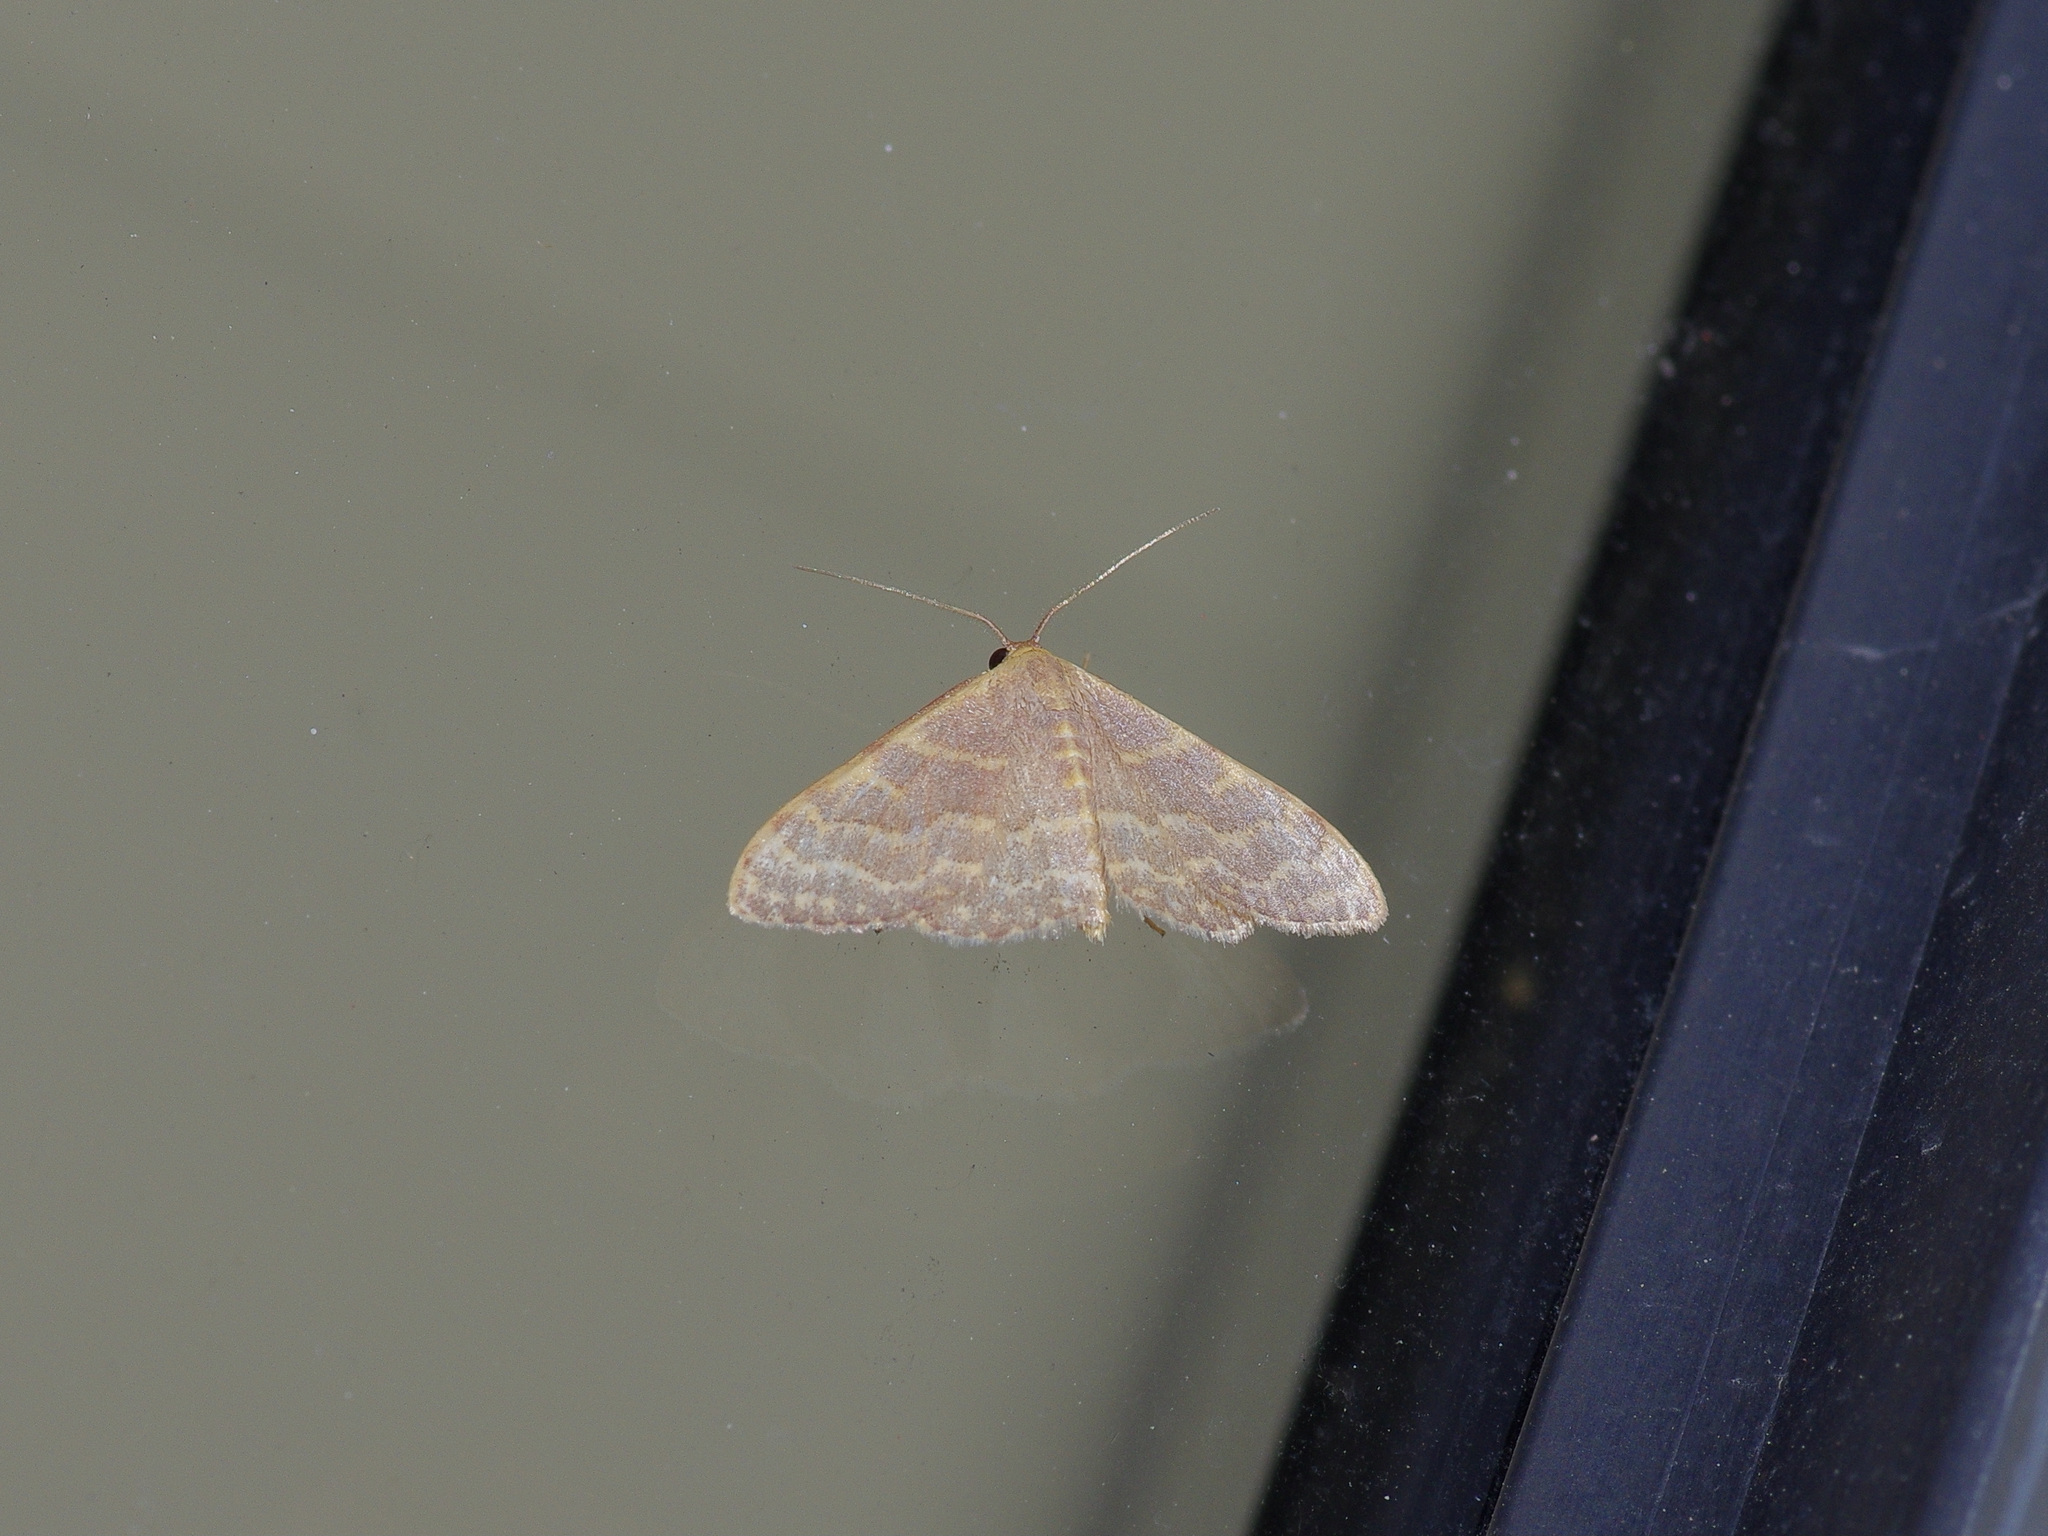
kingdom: Animalia
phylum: Arthropoda
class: Insecta
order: Lepidoptera
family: Geometridae
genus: Leptostales
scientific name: Leptostales pannaria
